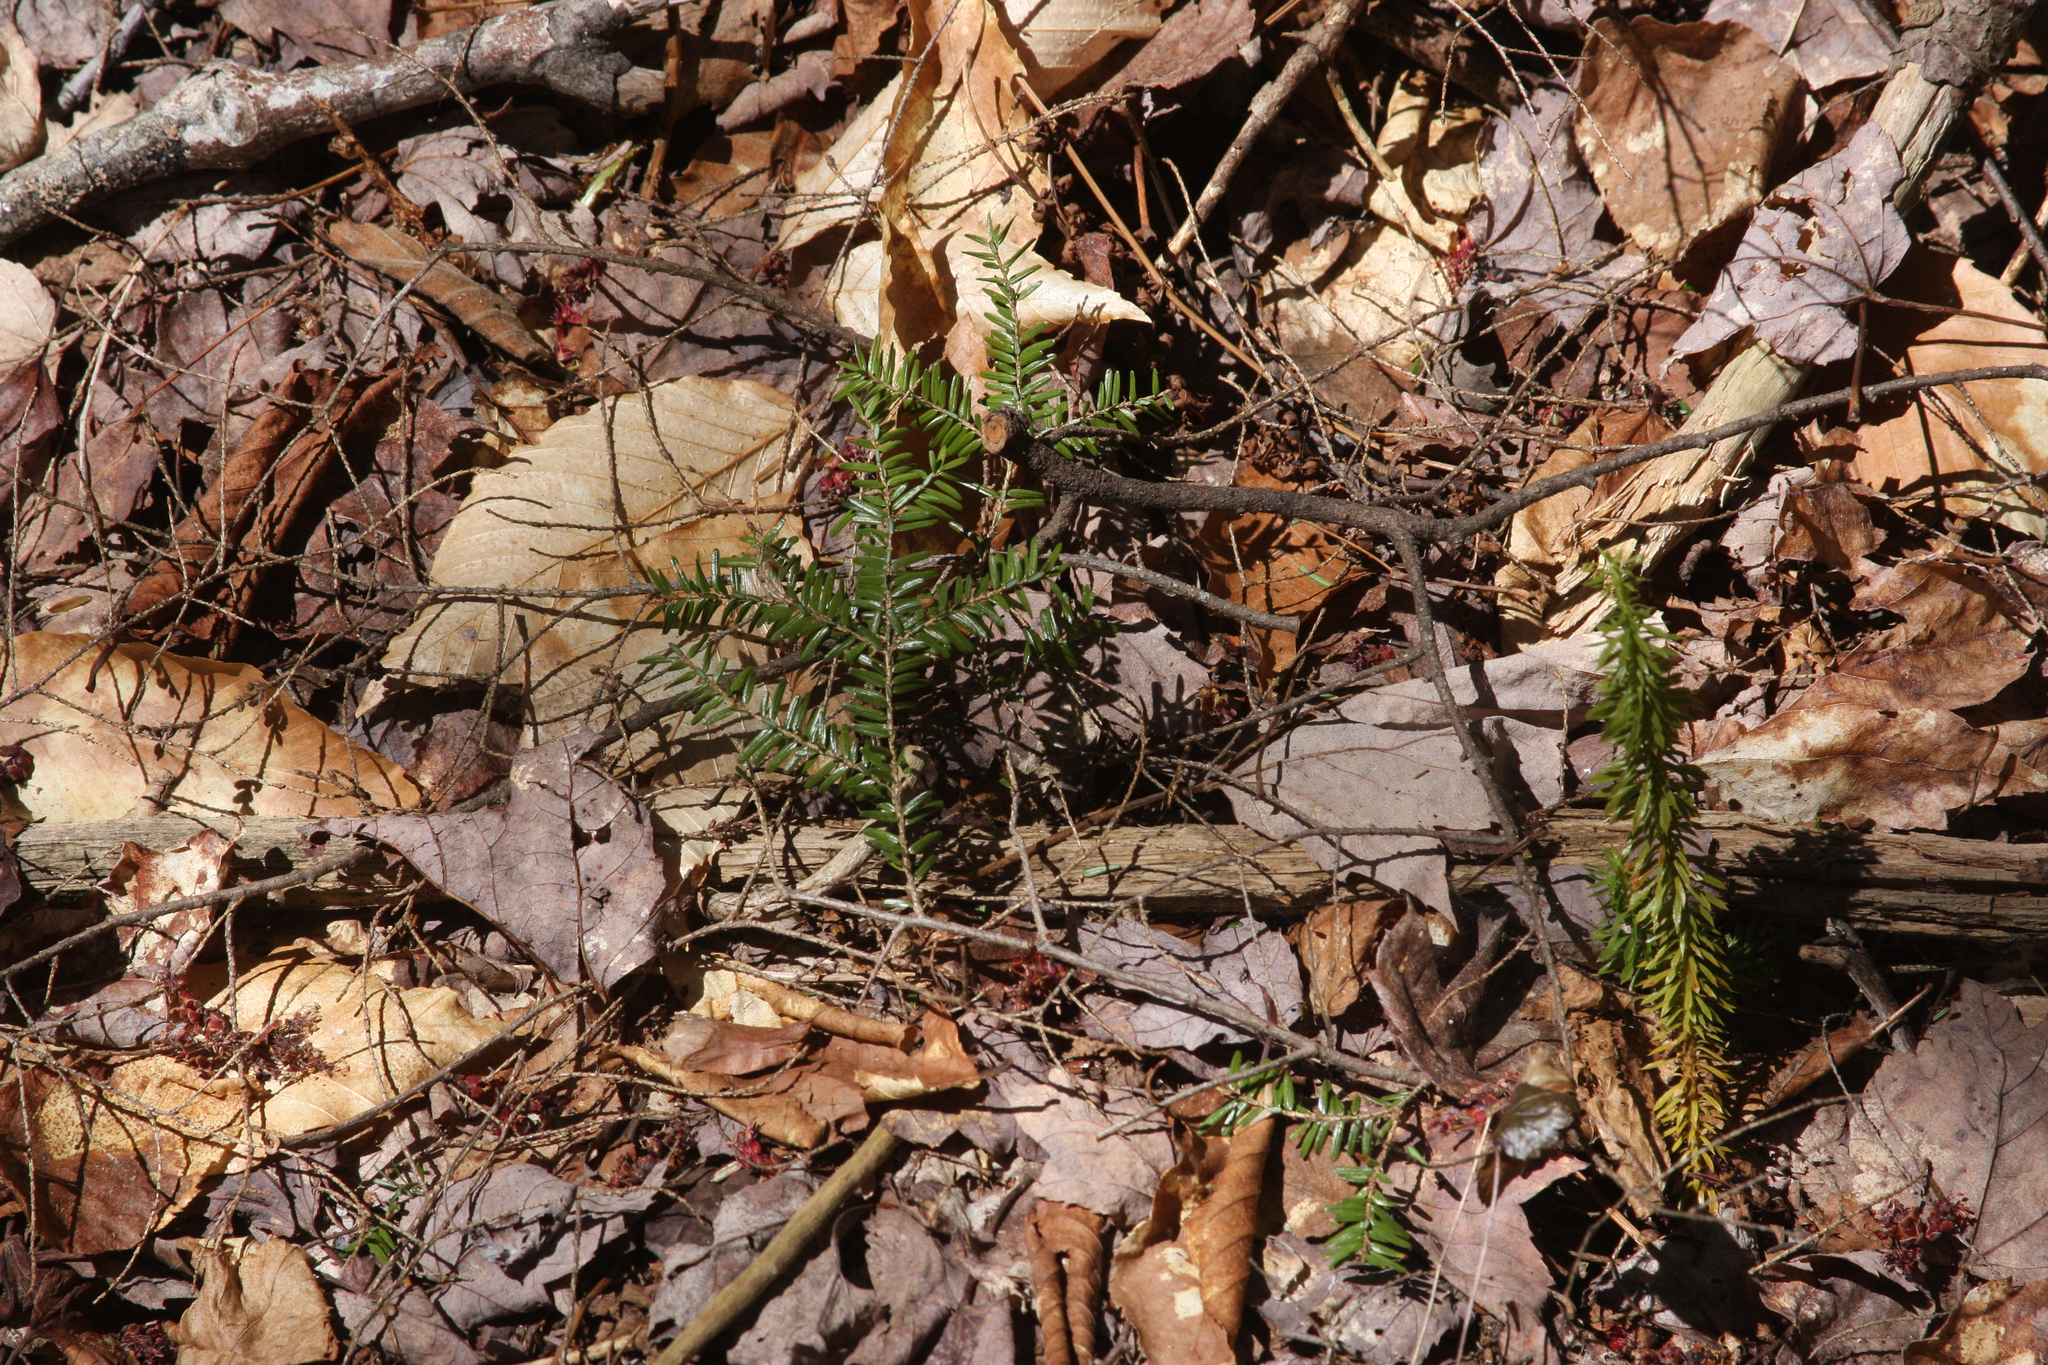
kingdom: Plantae
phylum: Tracheophyta
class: Pinopsida
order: Pinales
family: Pinaceae
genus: Tsuga
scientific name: Tsuga canadensis
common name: Eastern hemlock
